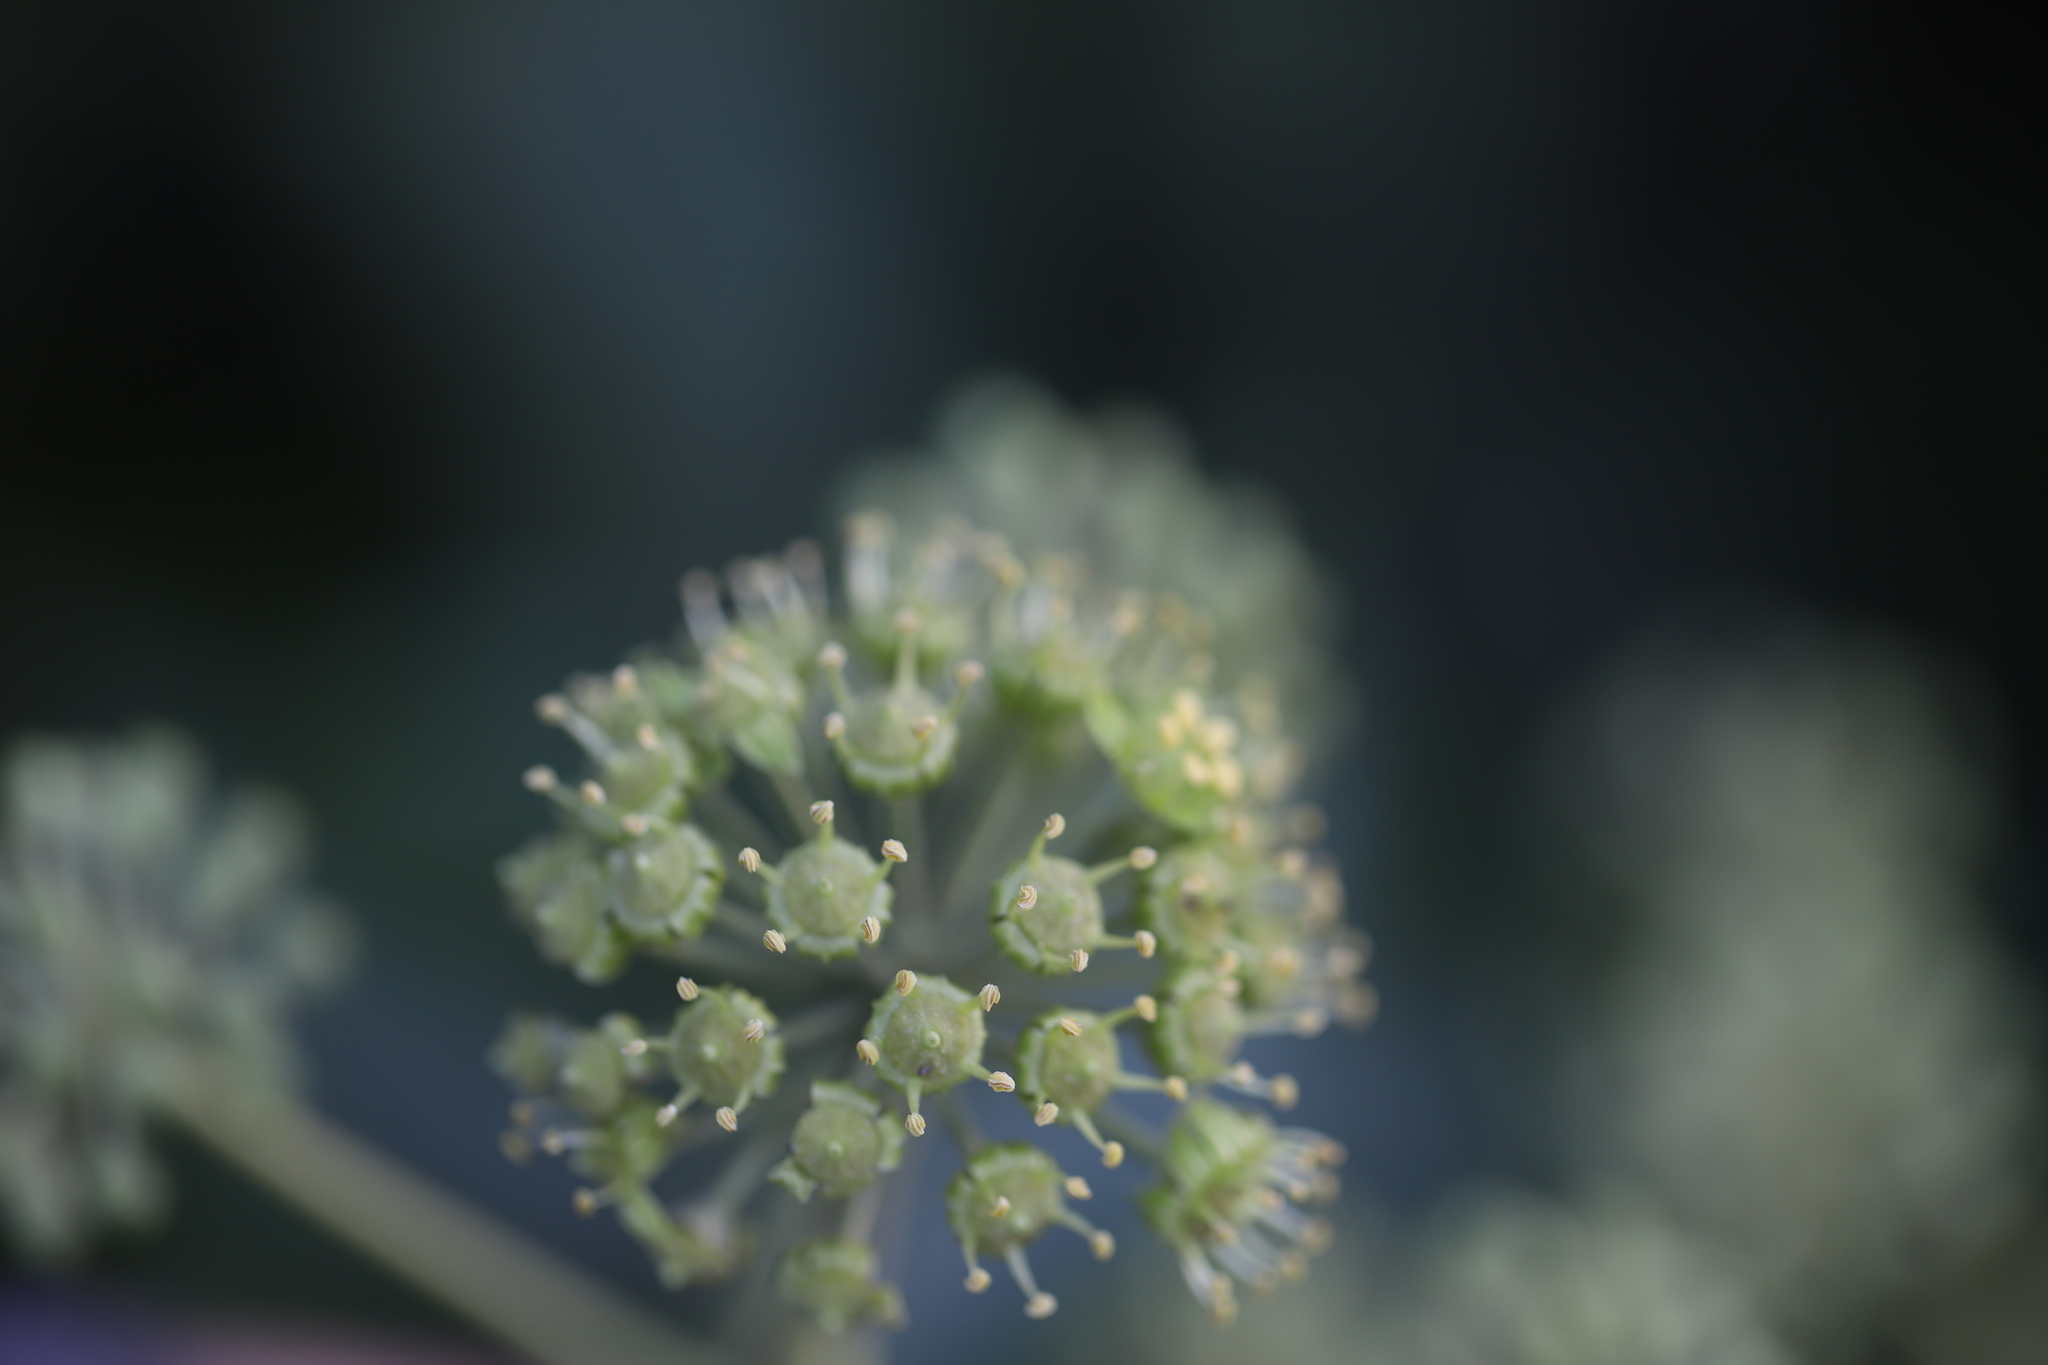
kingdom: Plantae
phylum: Tracheophyta
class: Magnoliopsida
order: Apiales
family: Araliaceae
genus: Hedera
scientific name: Hedera helix
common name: Ivy
